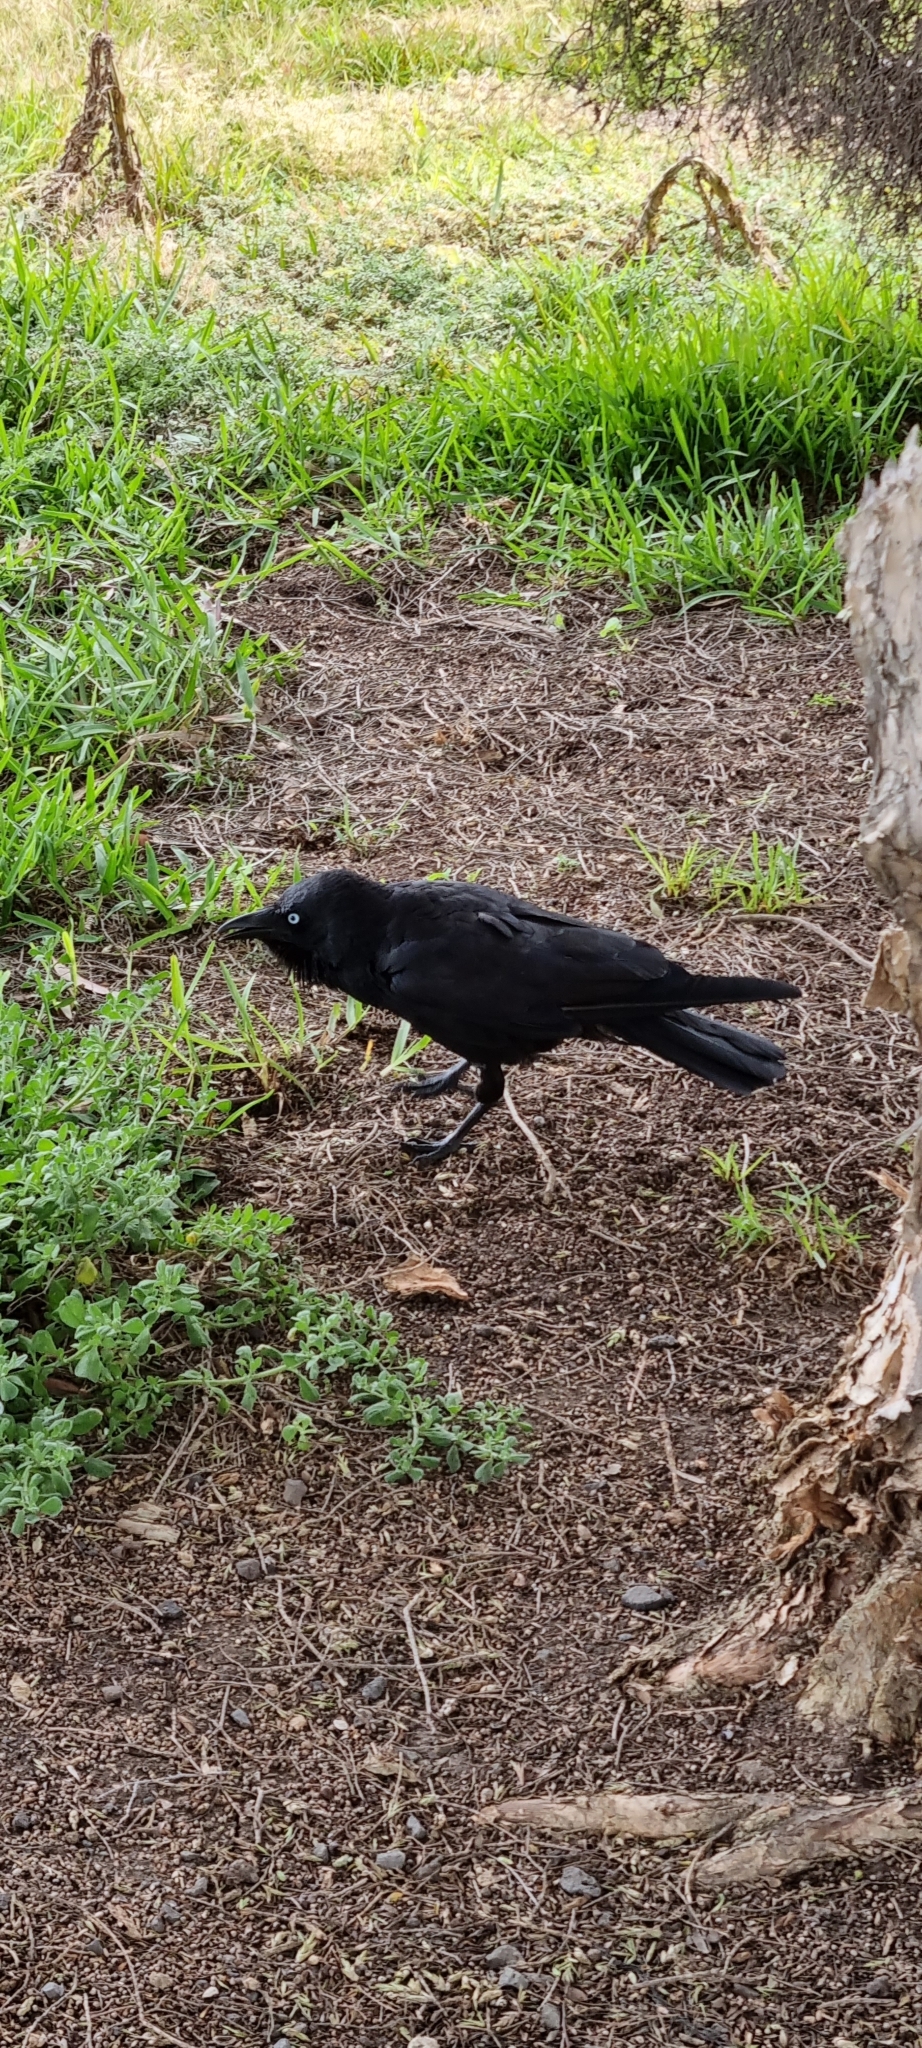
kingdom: Animalia
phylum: Chordata
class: Aves
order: Passeriformes
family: Corvidae
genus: Corvus
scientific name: Corvus mellori
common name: Little raven
